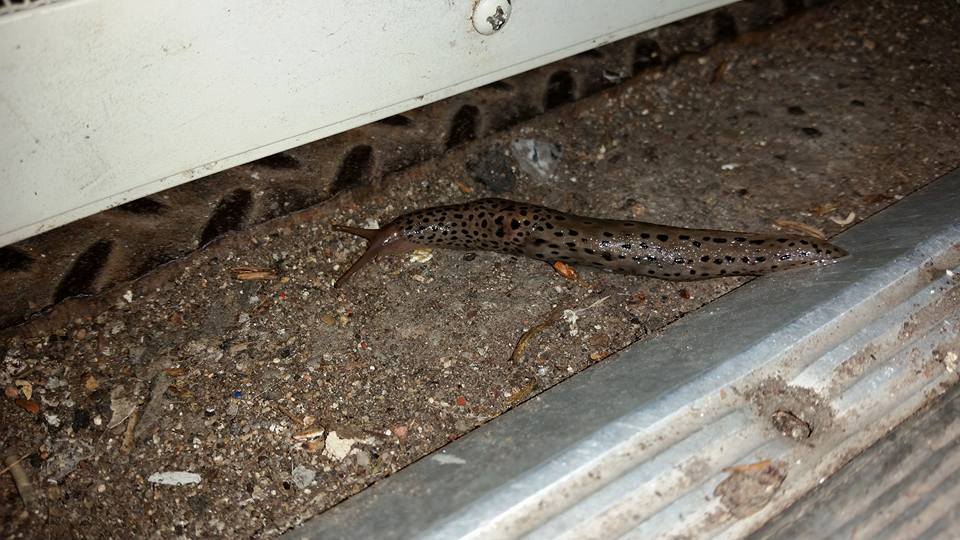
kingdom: Animalia
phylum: Mollusca
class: Gastropoda
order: Stylommatophora
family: Limacidae
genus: Limax
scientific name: Limax maximus
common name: Great grey slug
